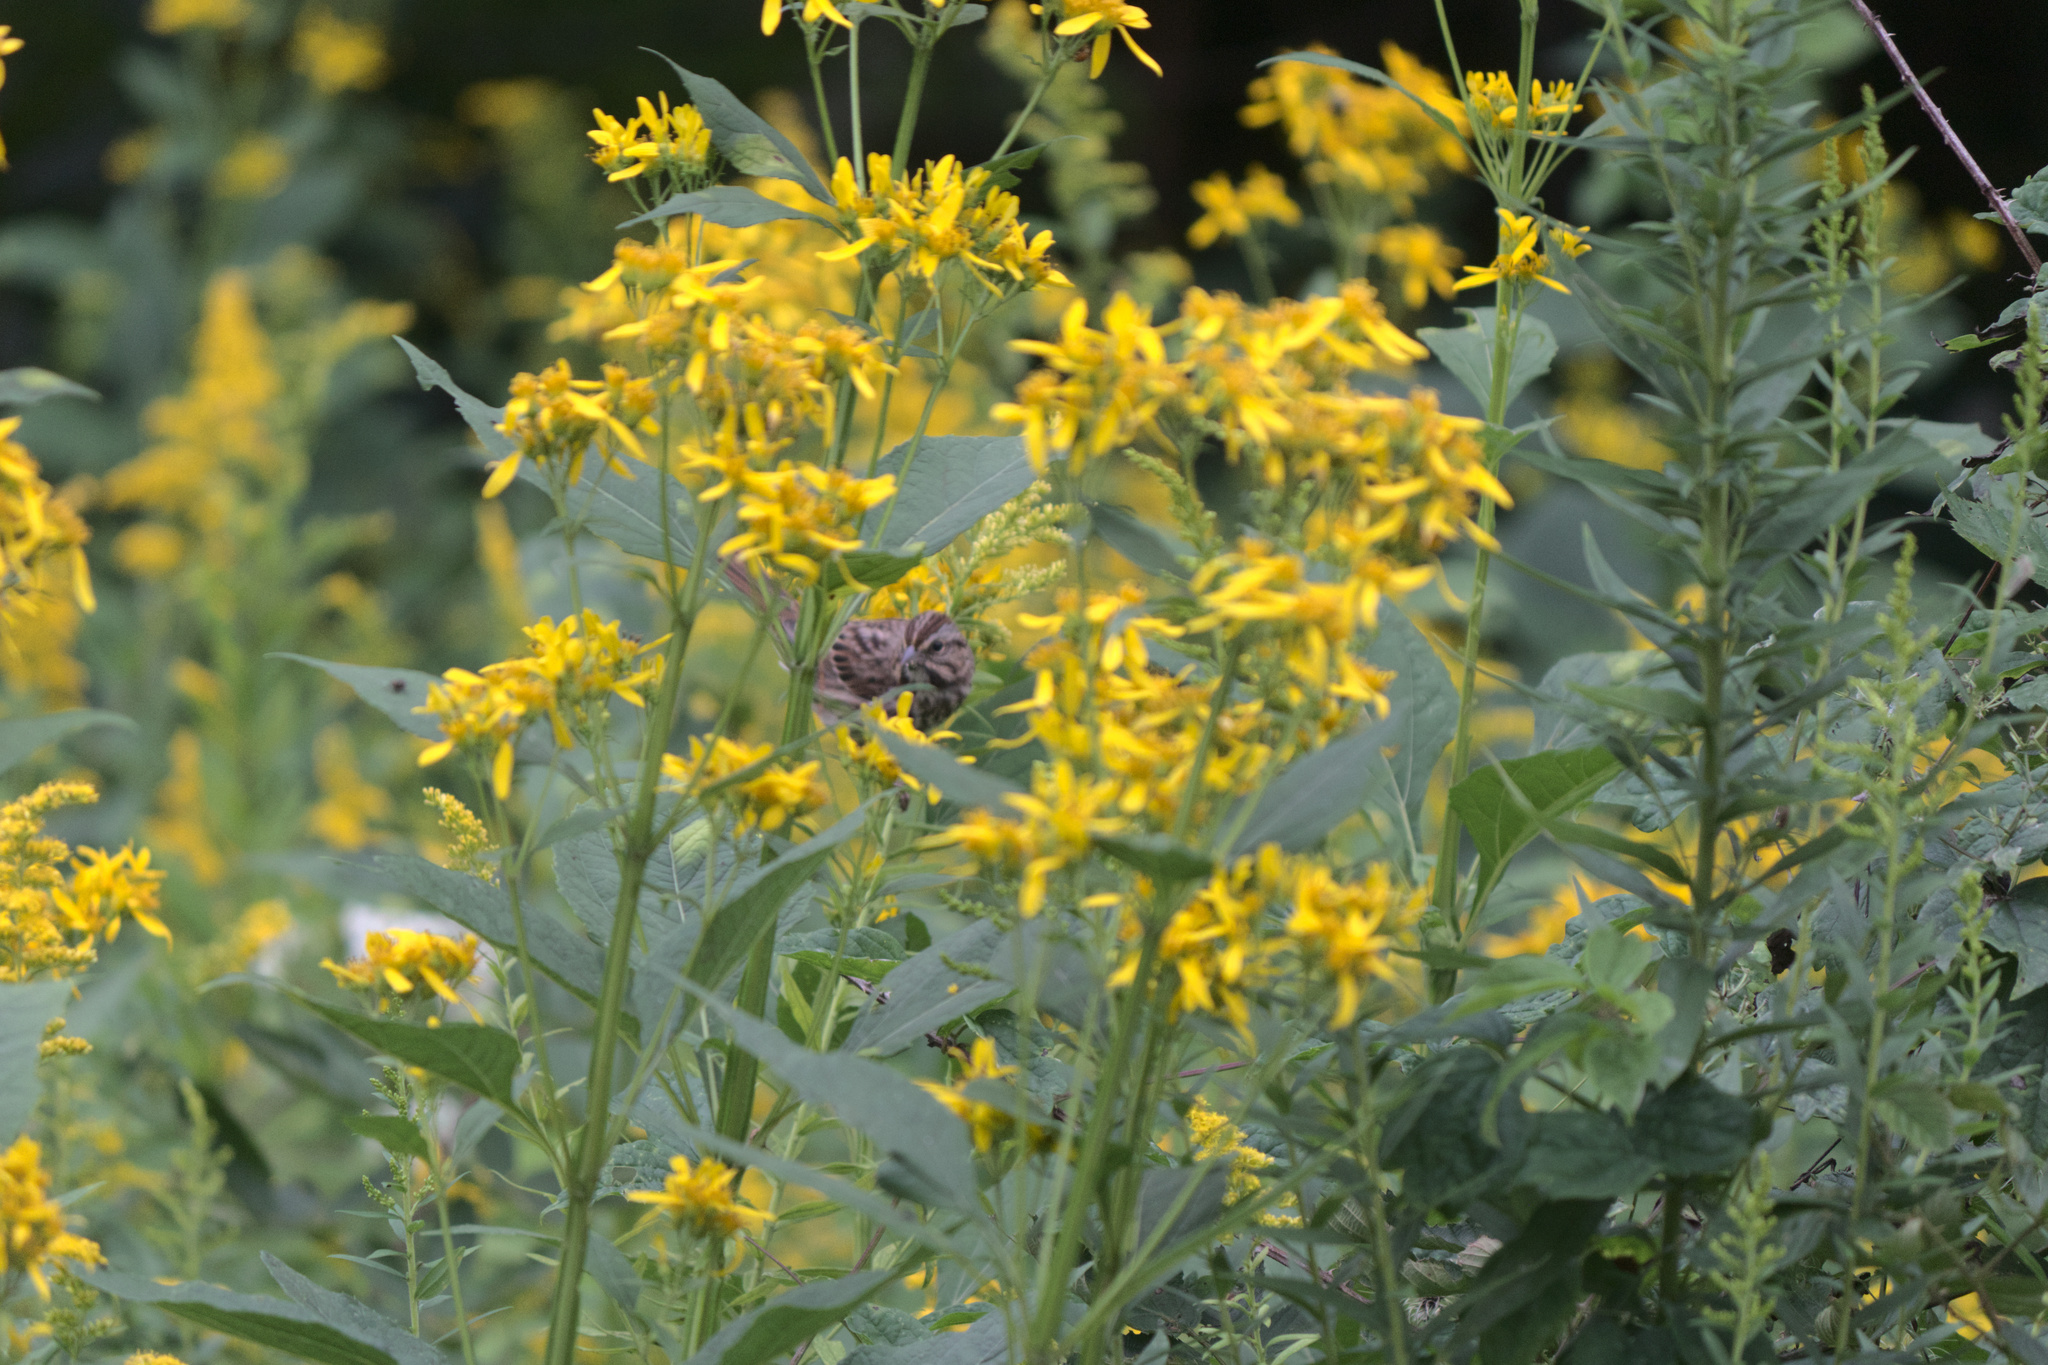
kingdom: Plantae
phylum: Tracheophyta
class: Magnoliopsida
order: Asterales
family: Asteraceae
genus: Verbesina
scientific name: Verbesina occidentalis
